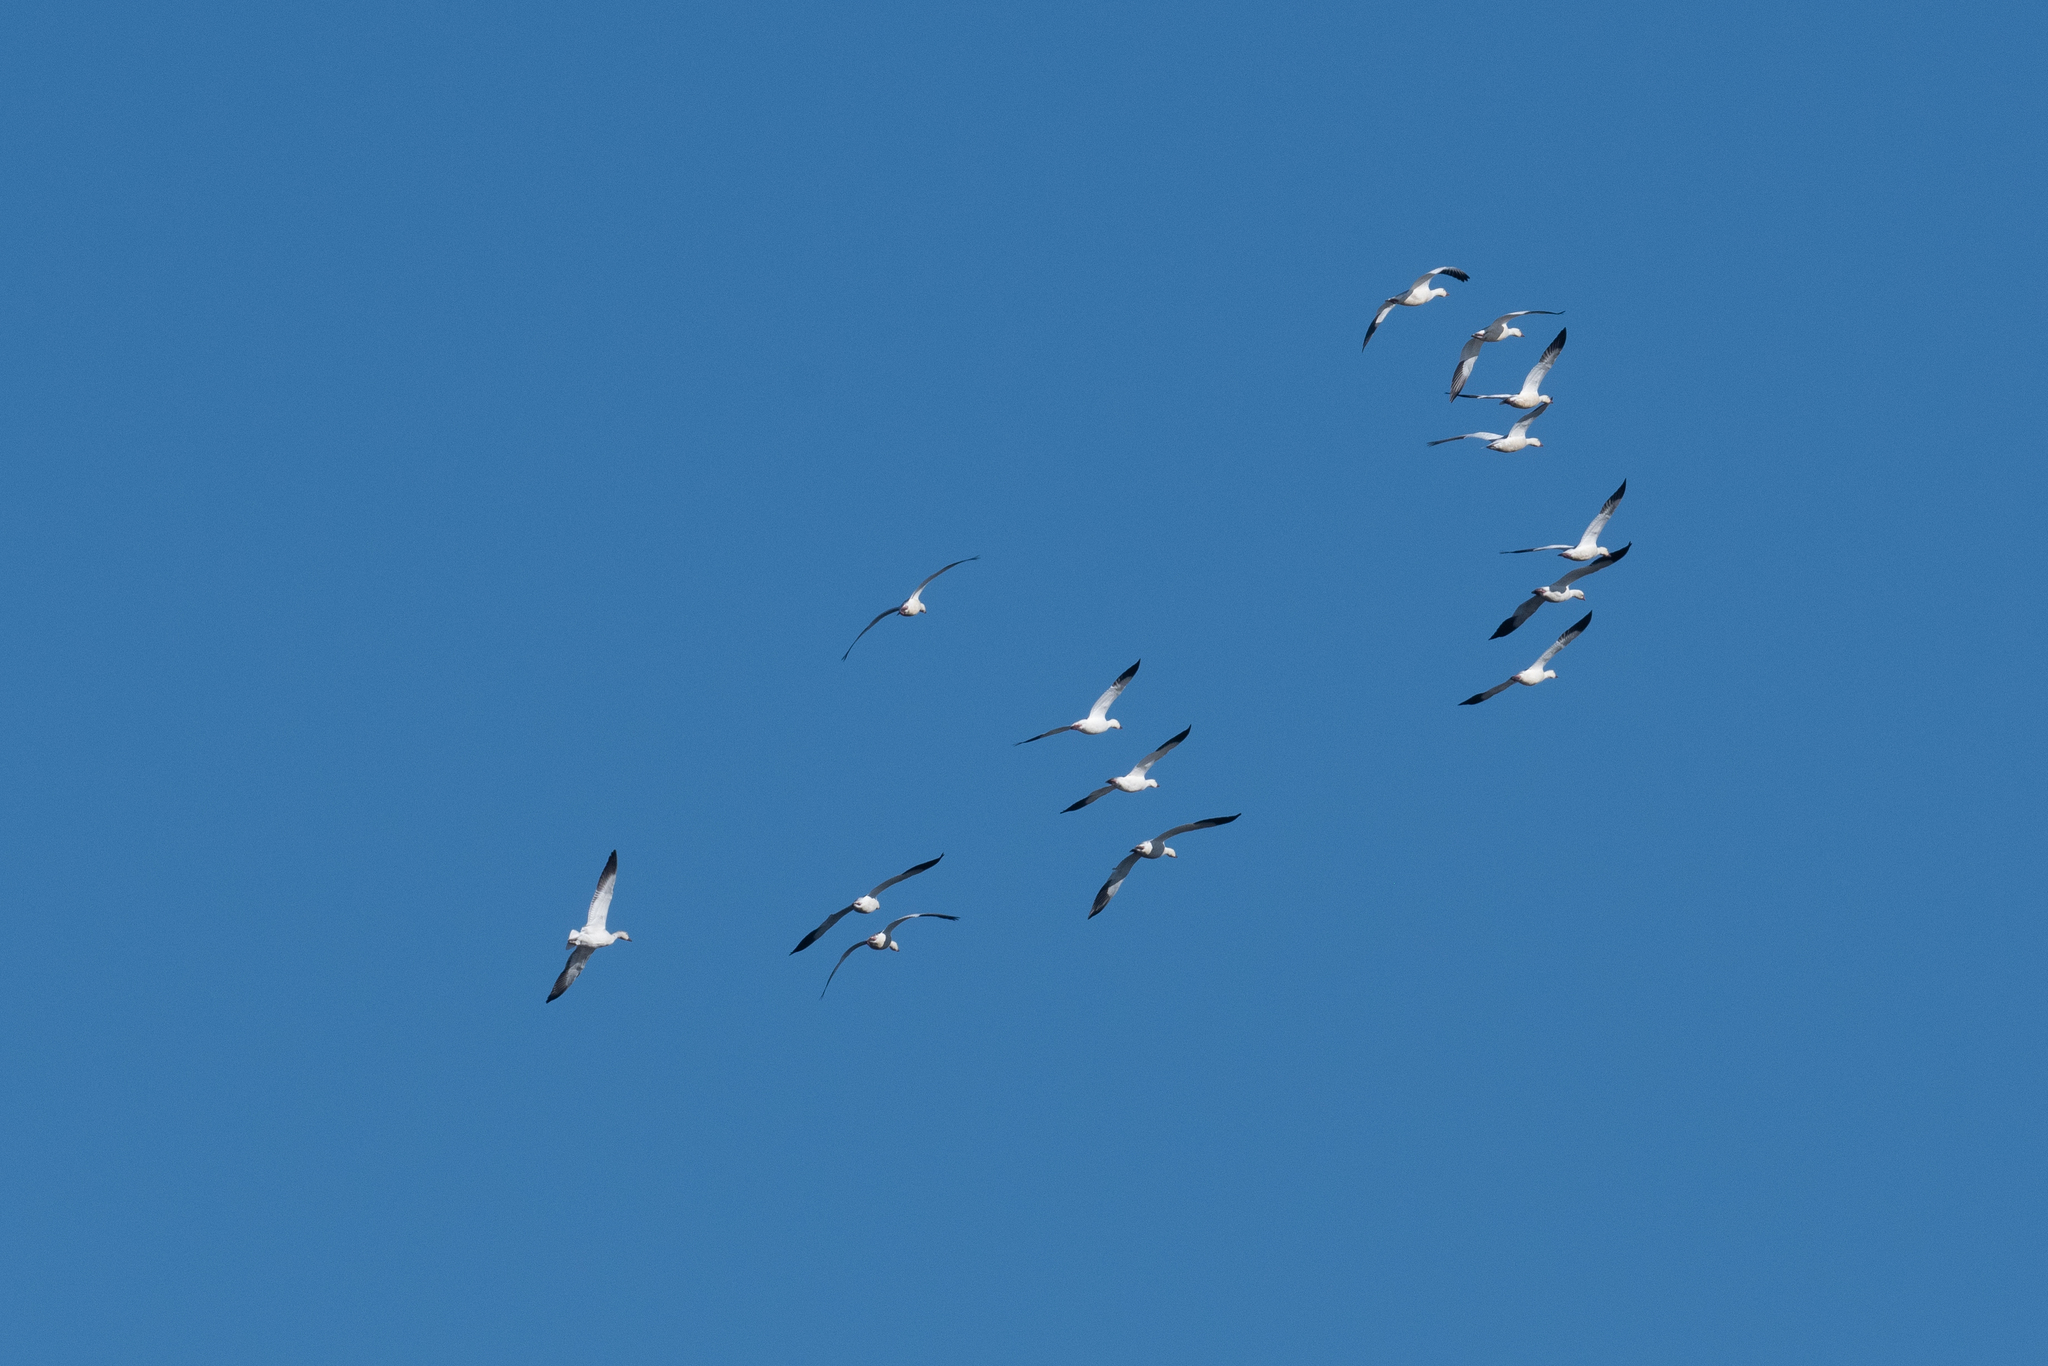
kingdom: Animalia
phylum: Chordata
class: Aves
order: Anseriformes
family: Anatidae
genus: Anser
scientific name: Anser caerulescens
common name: Snow goose
